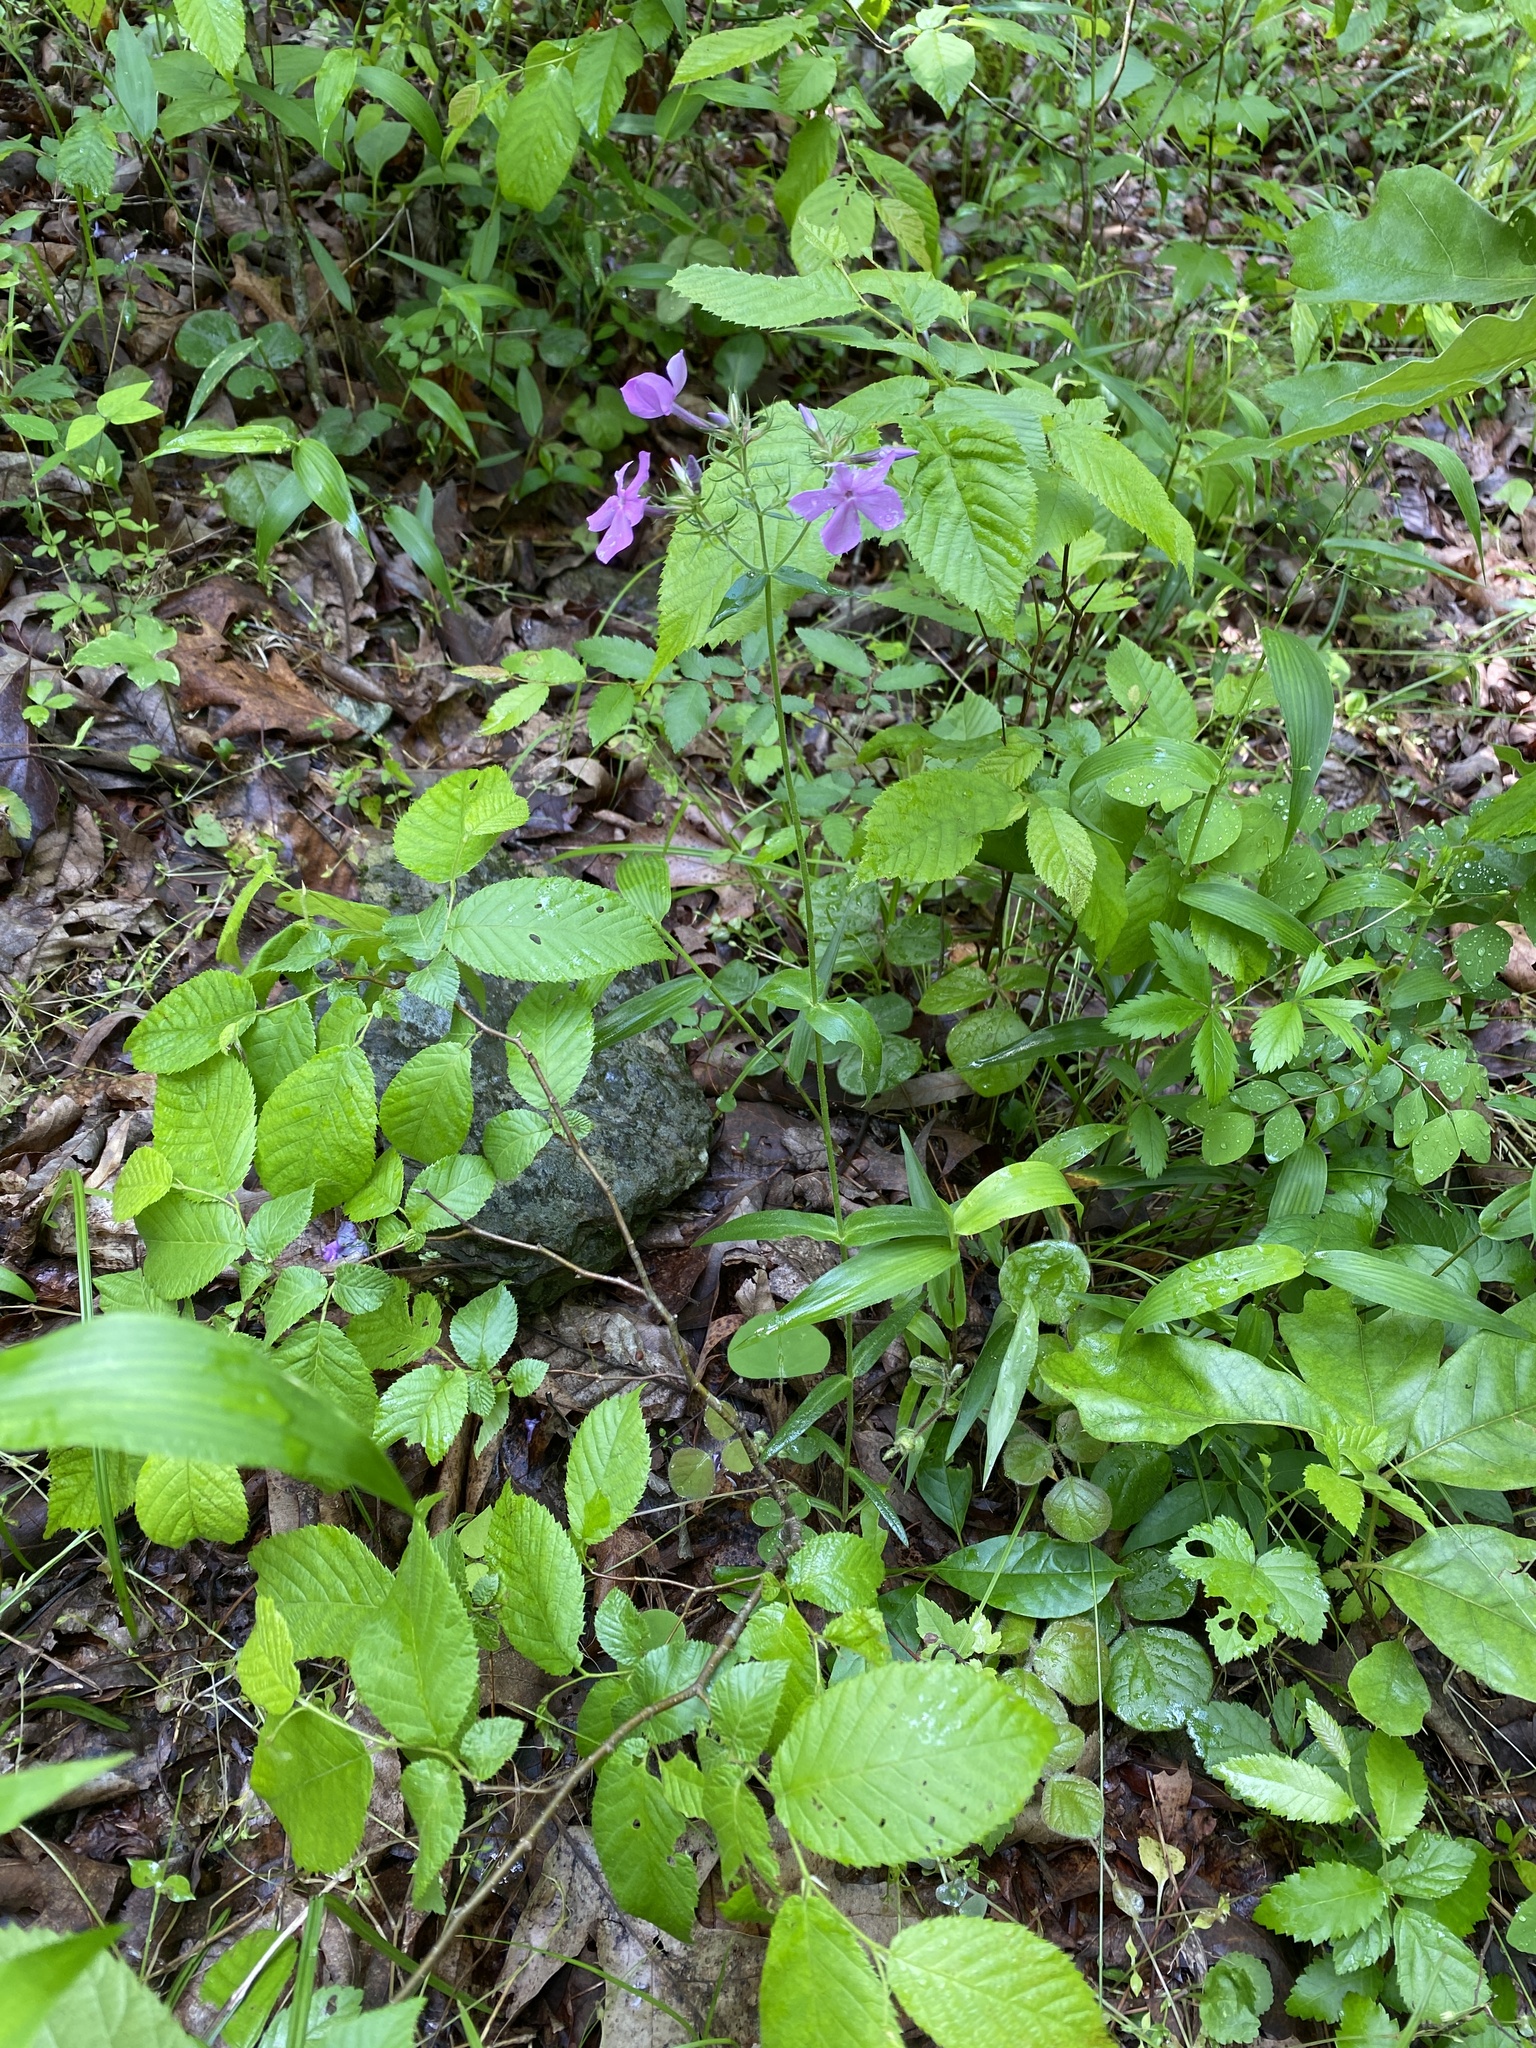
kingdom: Plantae
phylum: Tracheophyta
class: Magnoliopsida
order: Ericales
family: Polemoniaceae
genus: Phlox
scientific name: Phlox pilosa
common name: Prairie phlox
